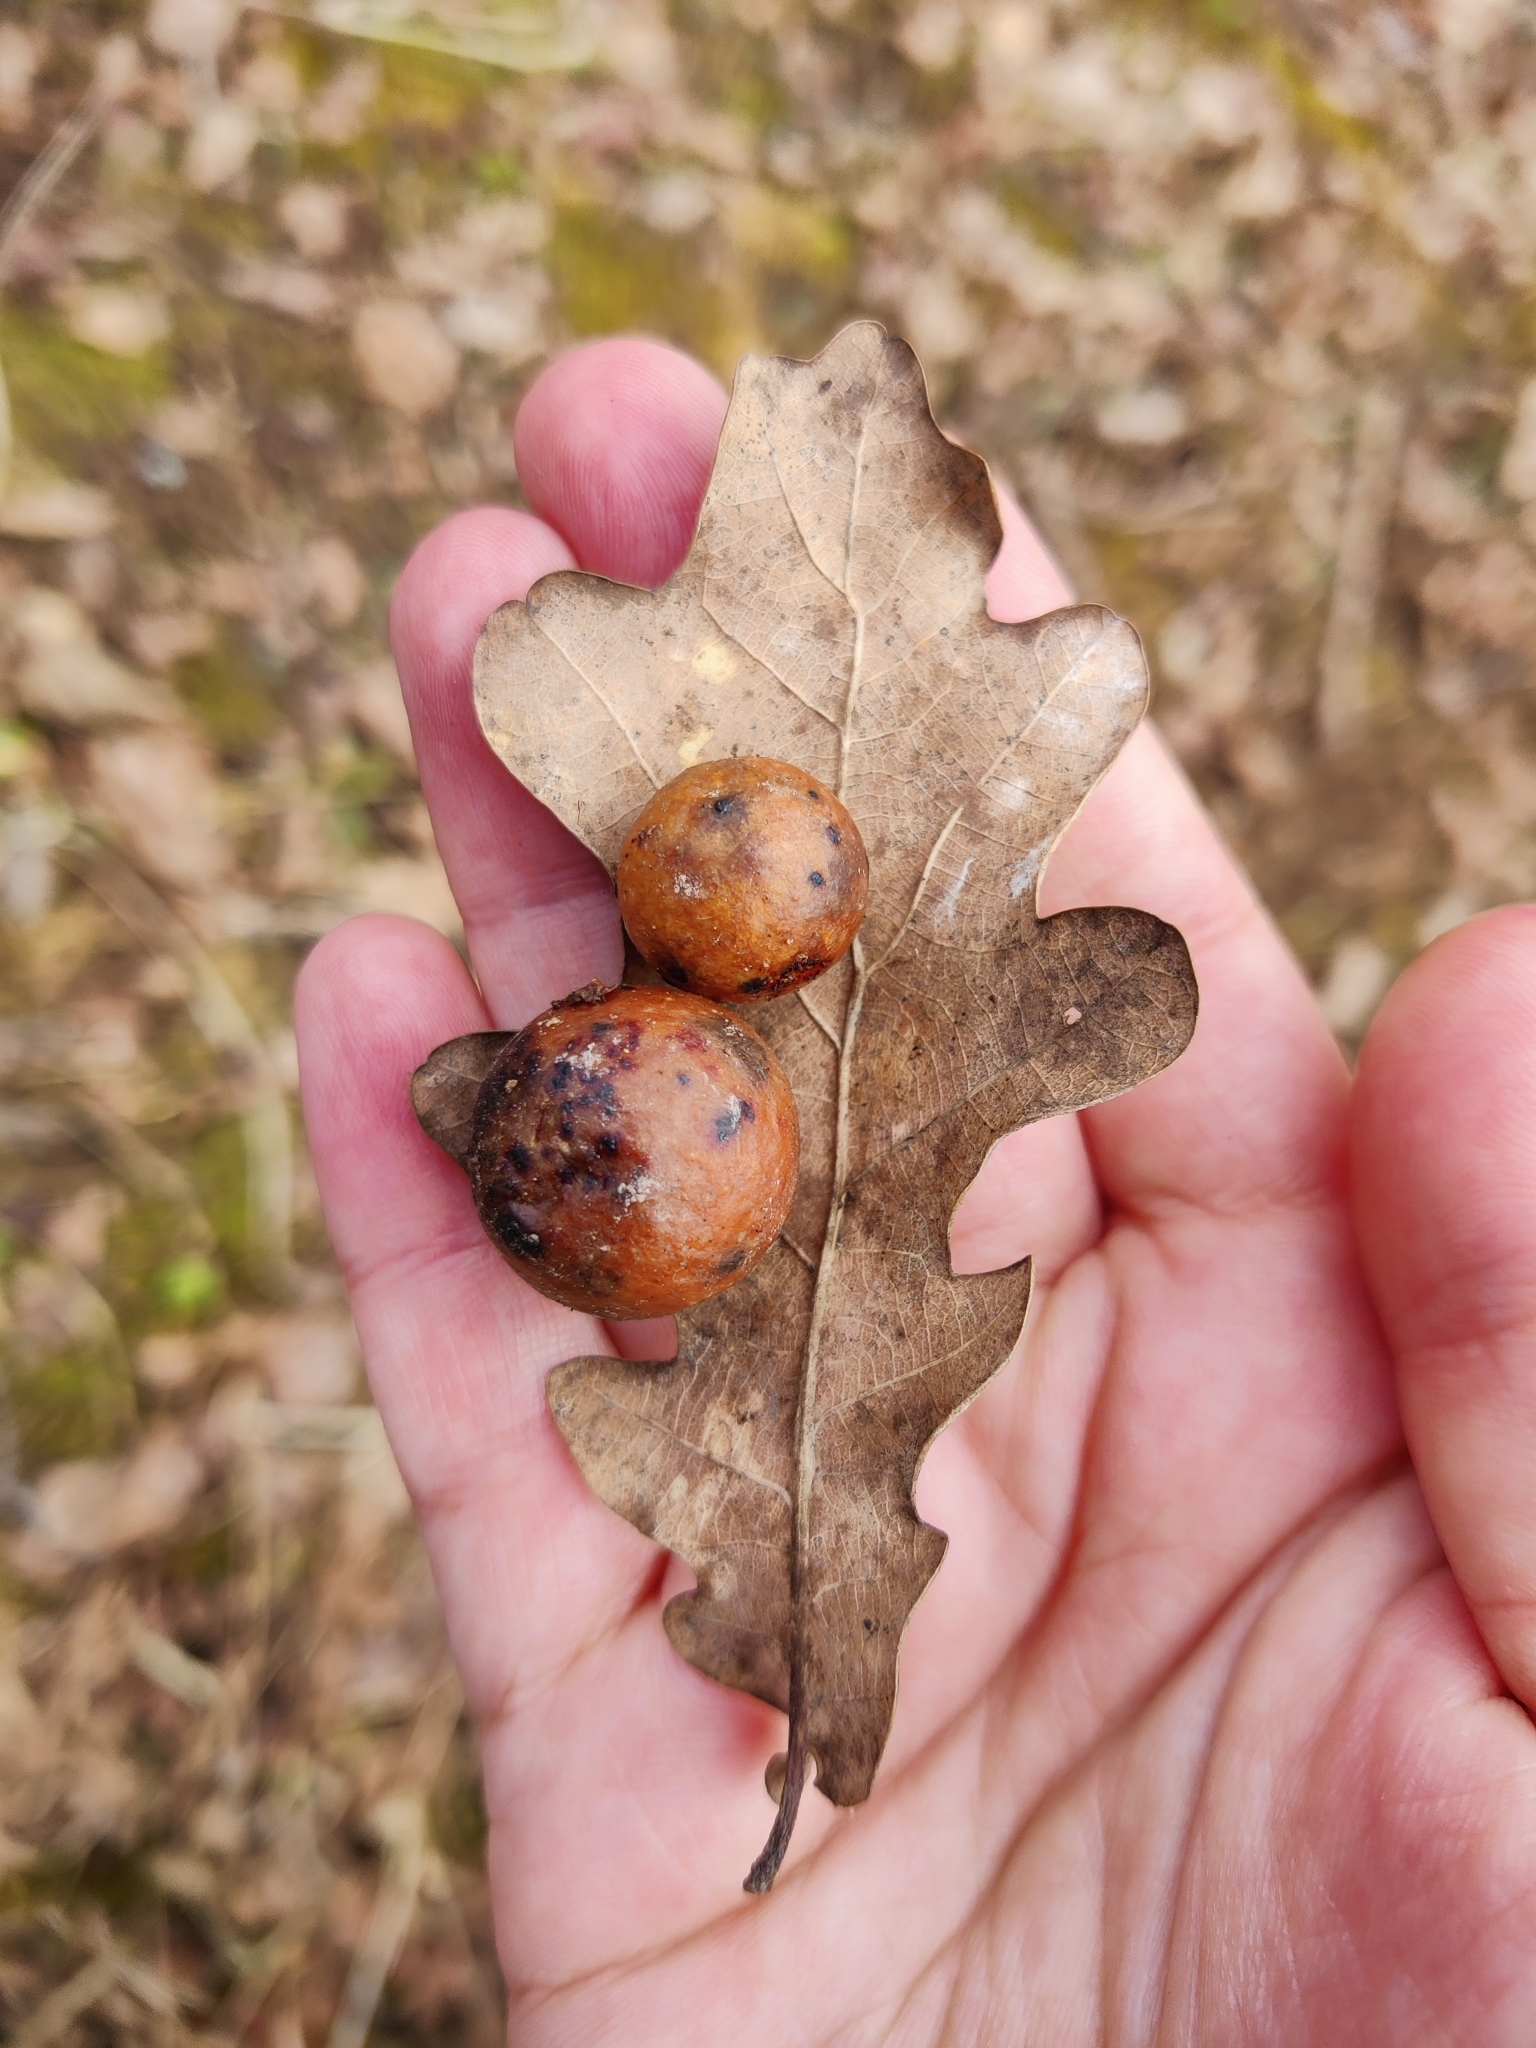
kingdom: Animalia
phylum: Arthropoda
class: Insecta
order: Hymenoptera
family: Cynipidae
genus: Cynips
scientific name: Cynips quercusfolii
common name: Cherry gall
